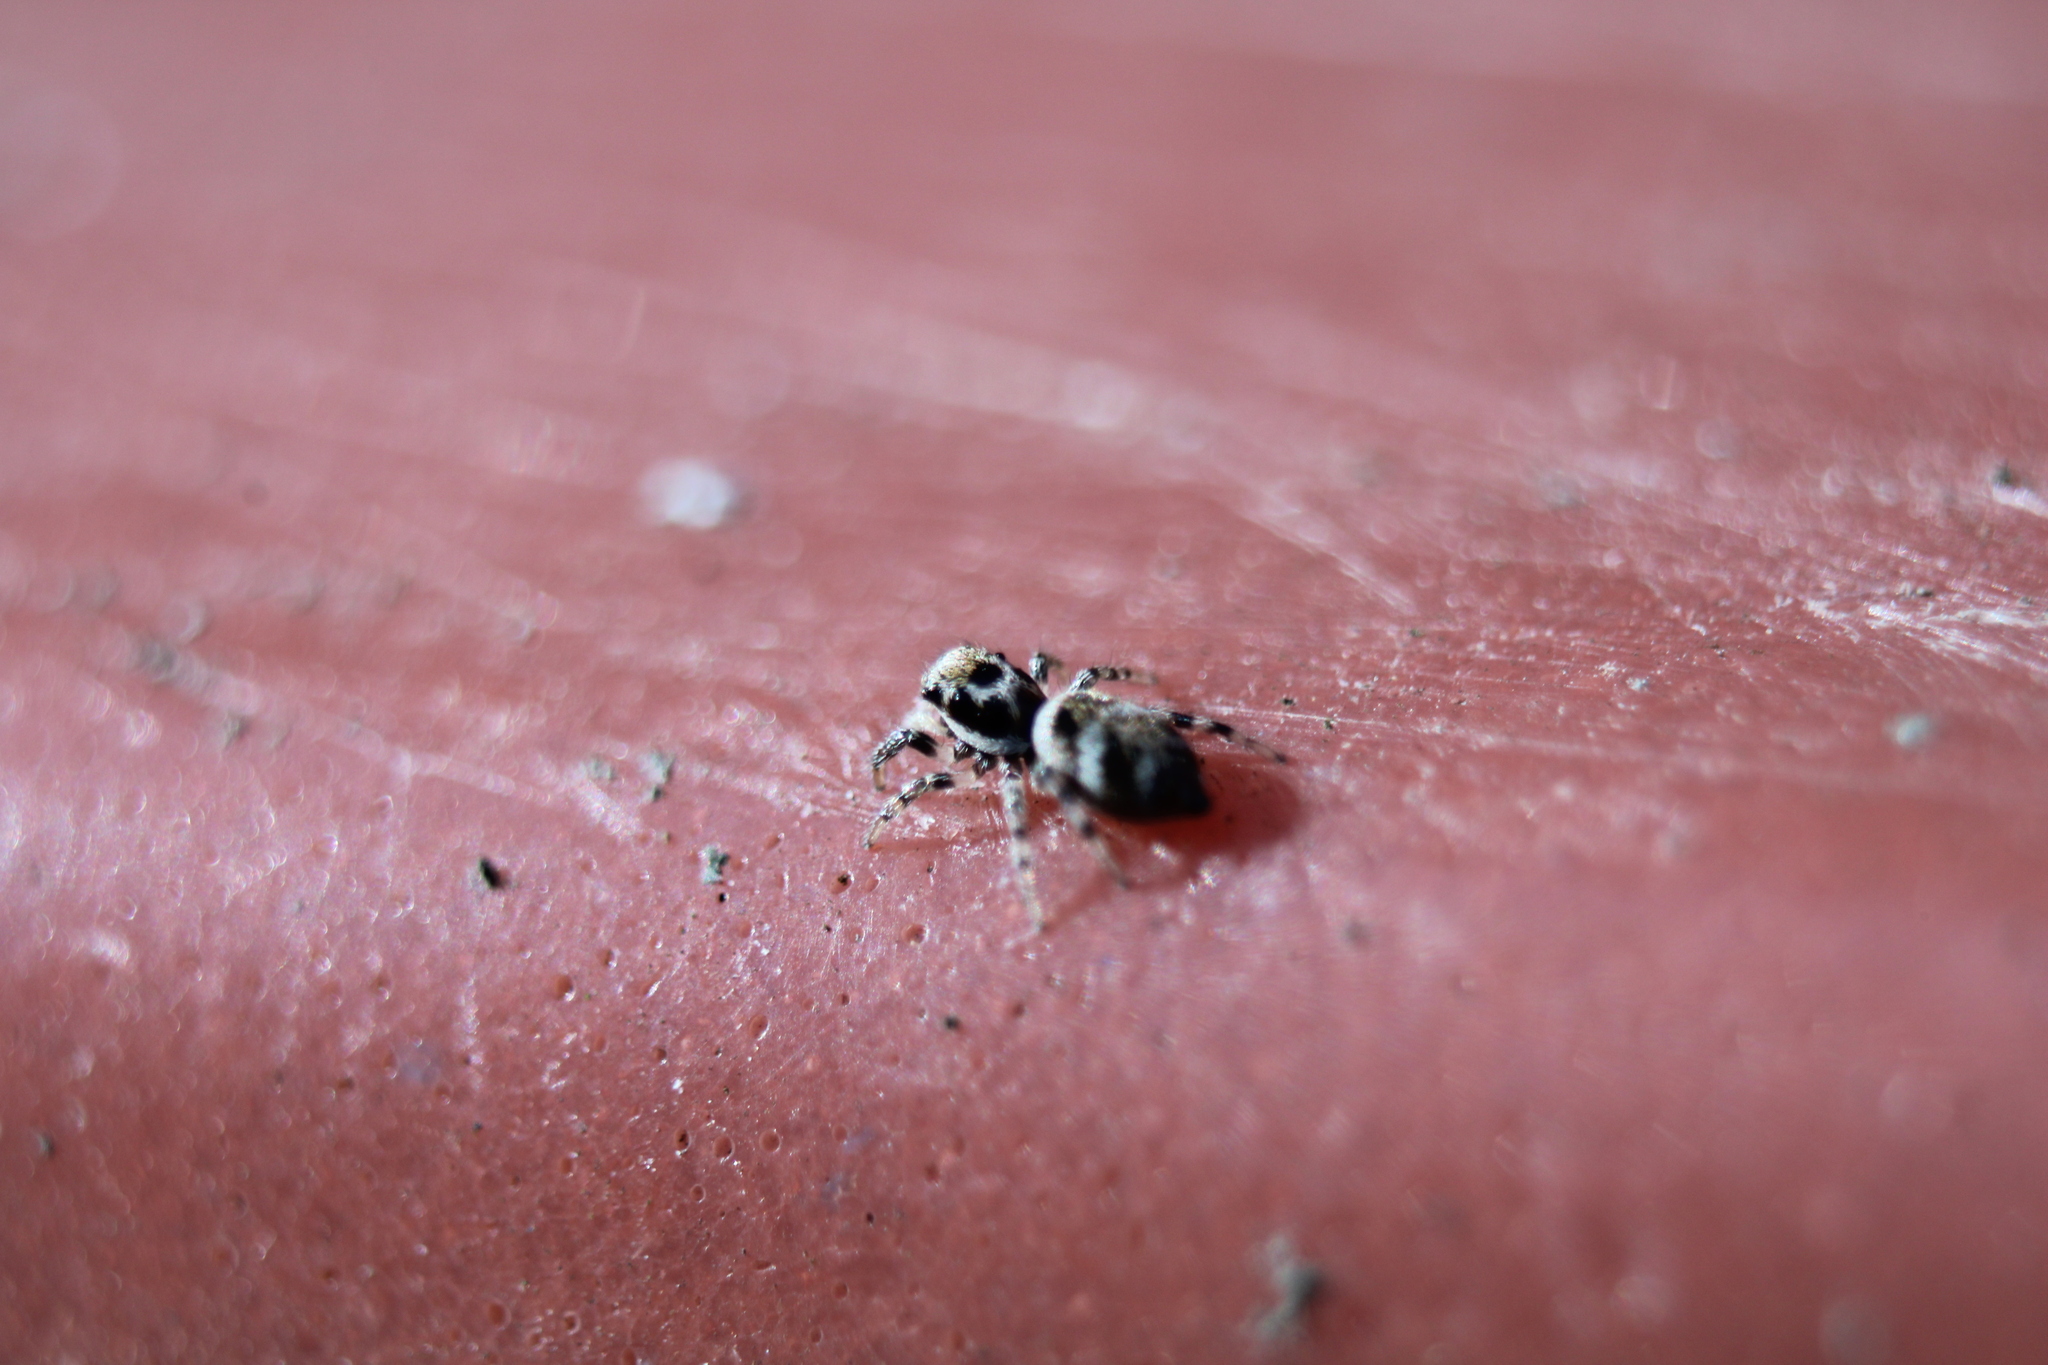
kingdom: Animalia
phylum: Arthropoda
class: Arachnida
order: Araneae
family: Salticidae
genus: Salticus
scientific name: Salticus scenicus
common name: Zebra jumper
